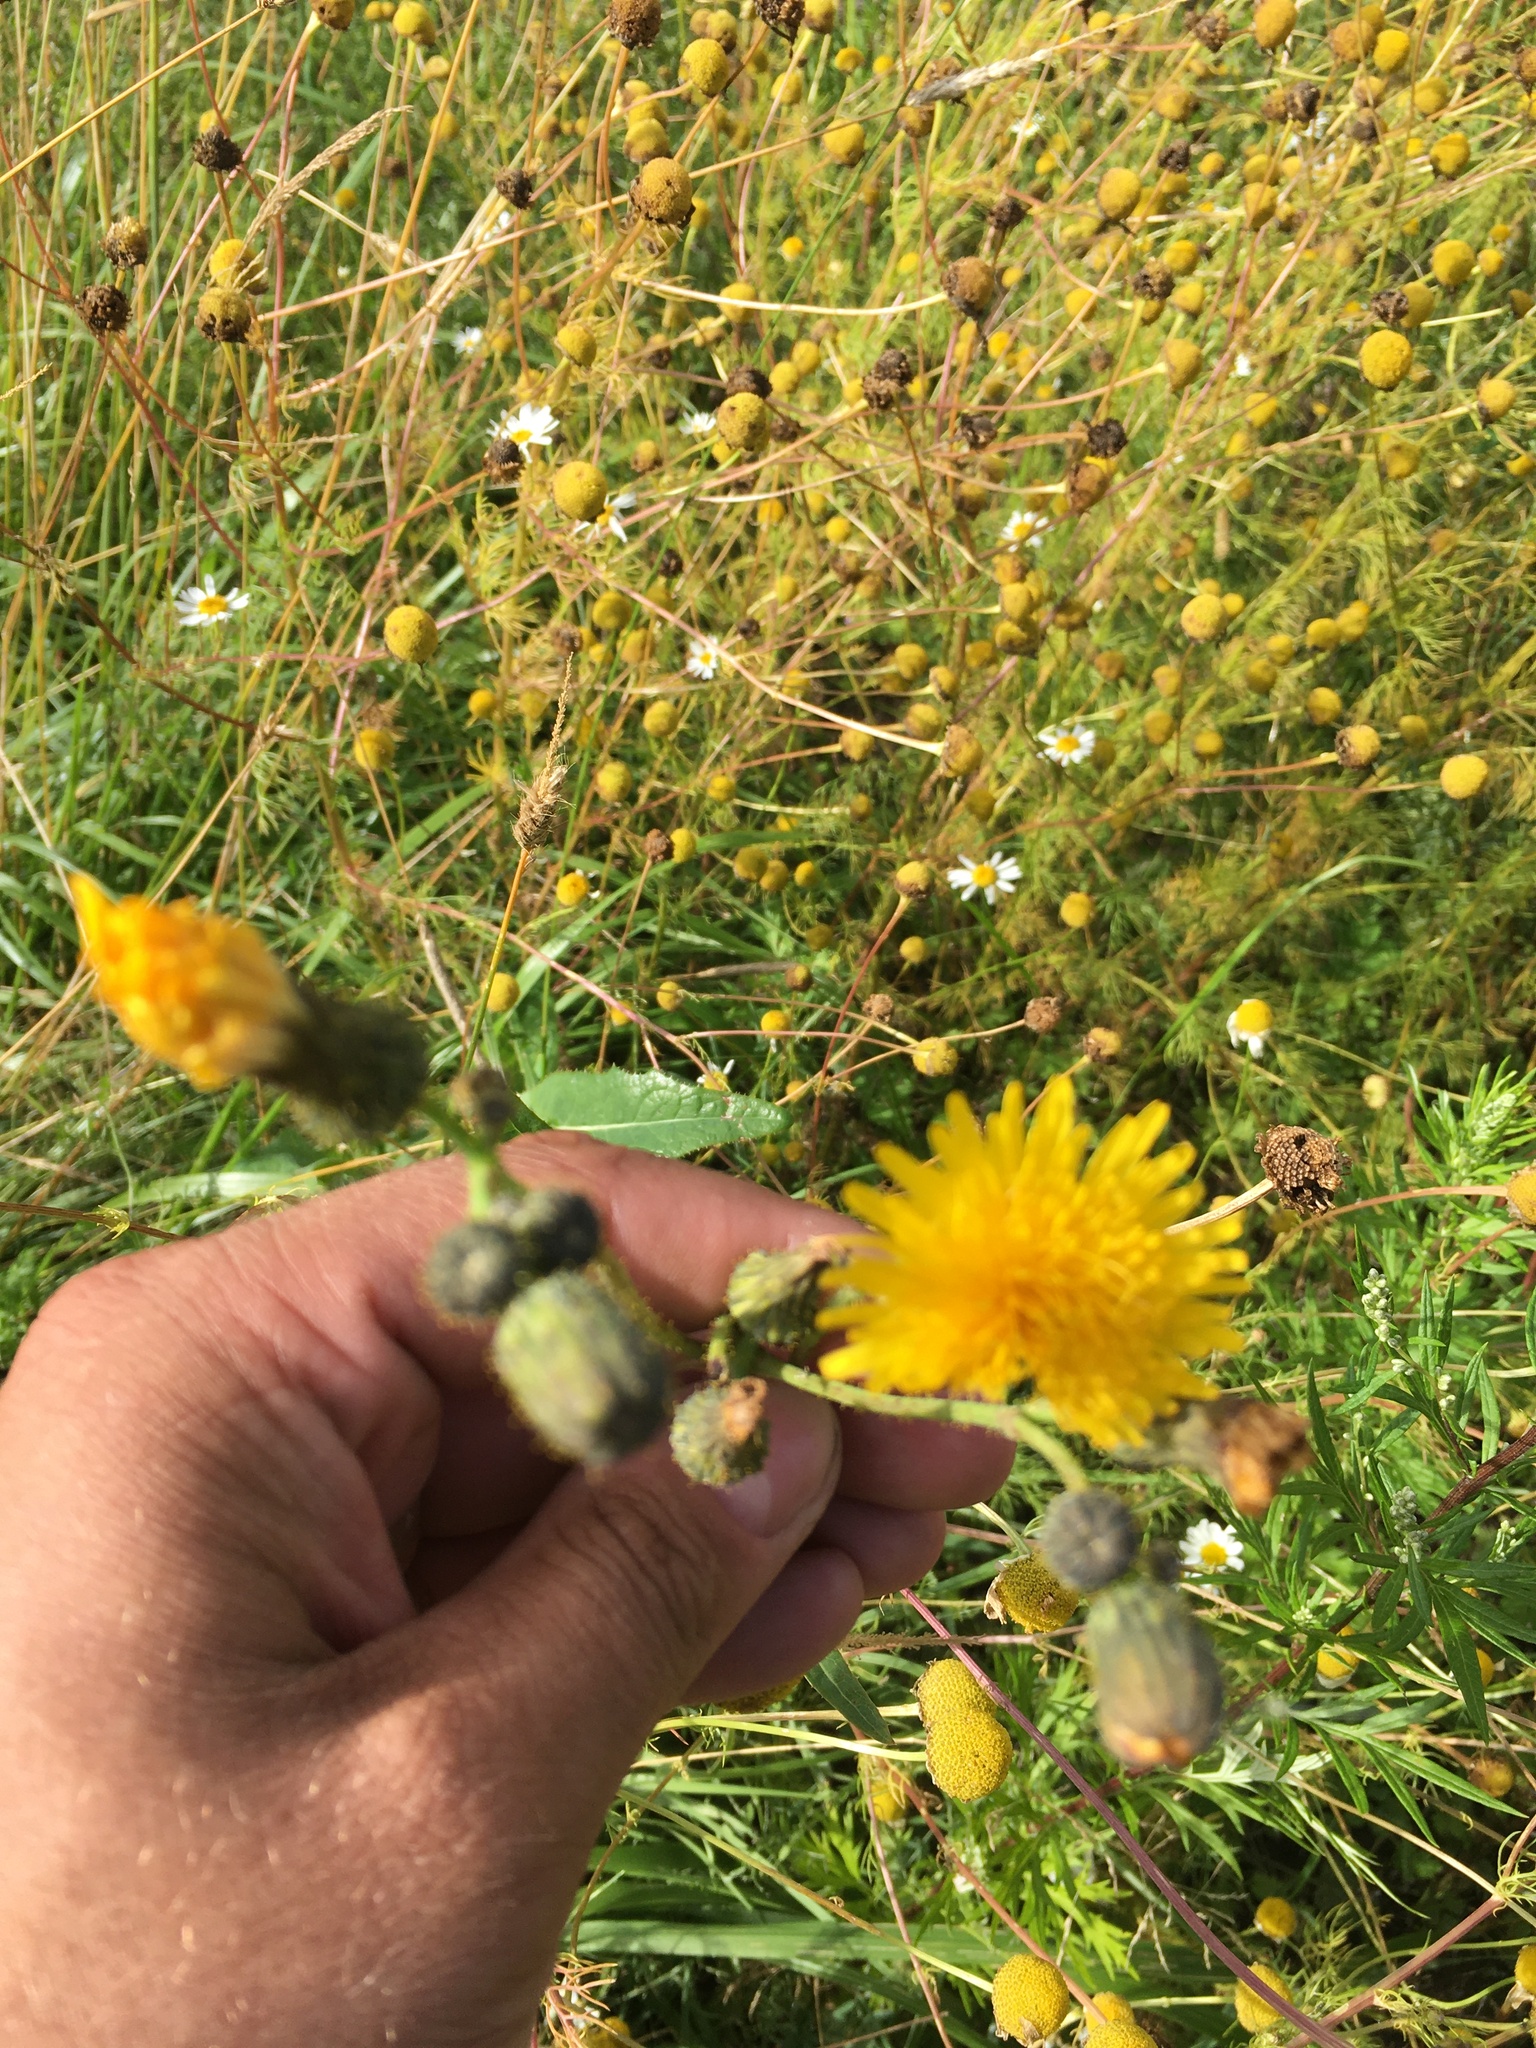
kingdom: Plantae
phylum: Tracheophyta
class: Magnoliopsida
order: Asterales
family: Asteraceae
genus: Sonchus
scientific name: Sonchus arvensis
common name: Perennial sow-thistle
